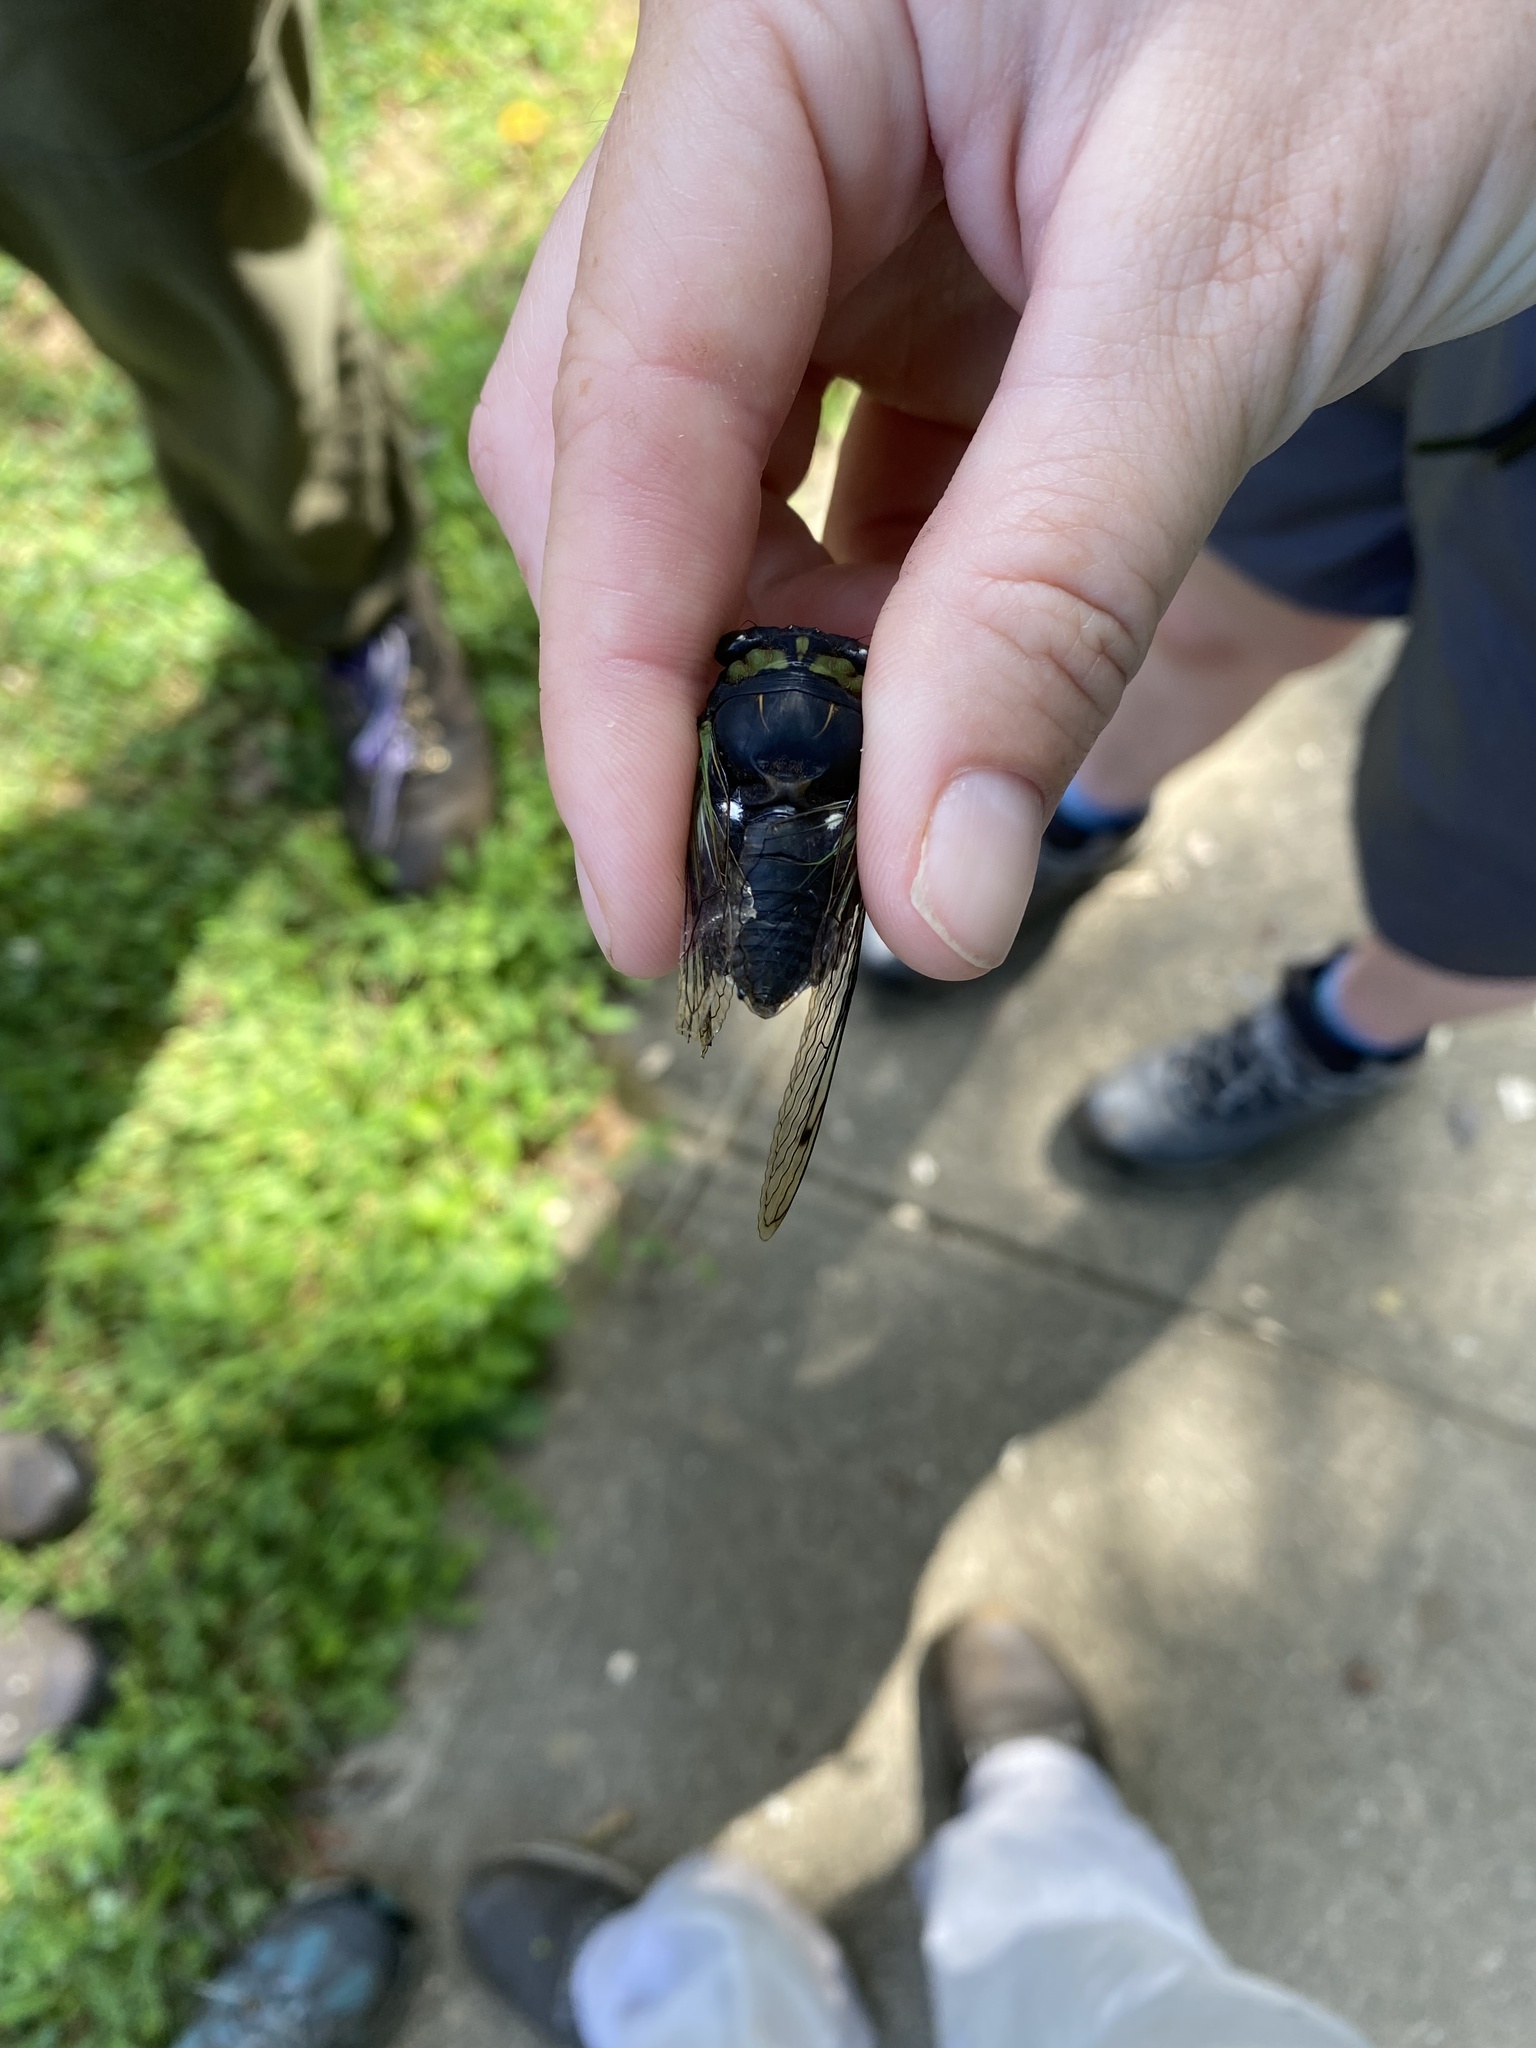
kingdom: Animalia
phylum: Arthropoda
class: Insecta
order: Hemiptera
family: Cicadidae
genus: Neotibicen
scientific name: Neotibicen tibicen
